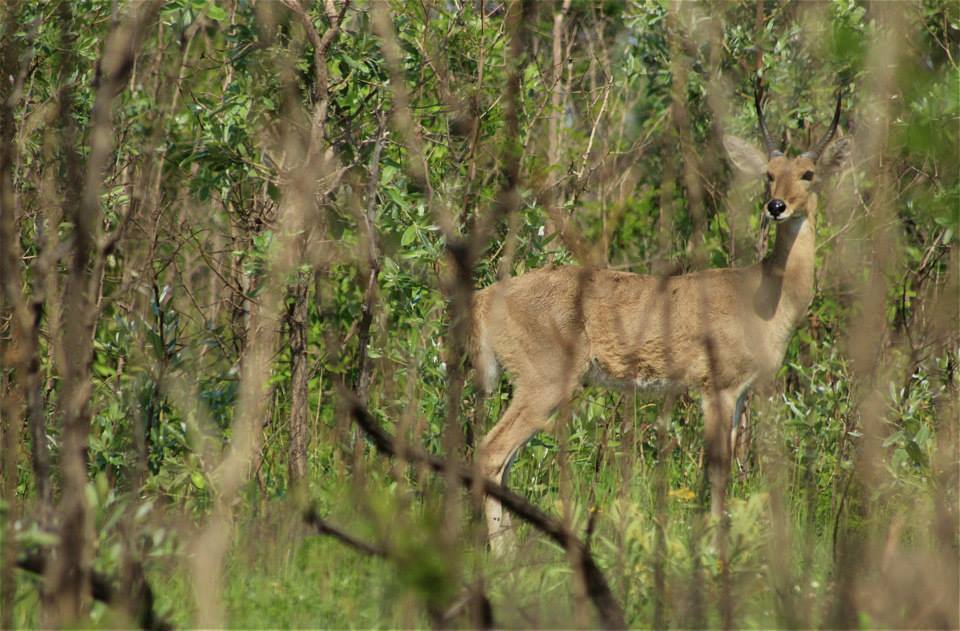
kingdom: Animalia
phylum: Chordata
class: Mammalia
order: Artiodactyla
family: Bovidae
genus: Redunca
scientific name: Redunca arundinum
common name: Southern reedbuck
